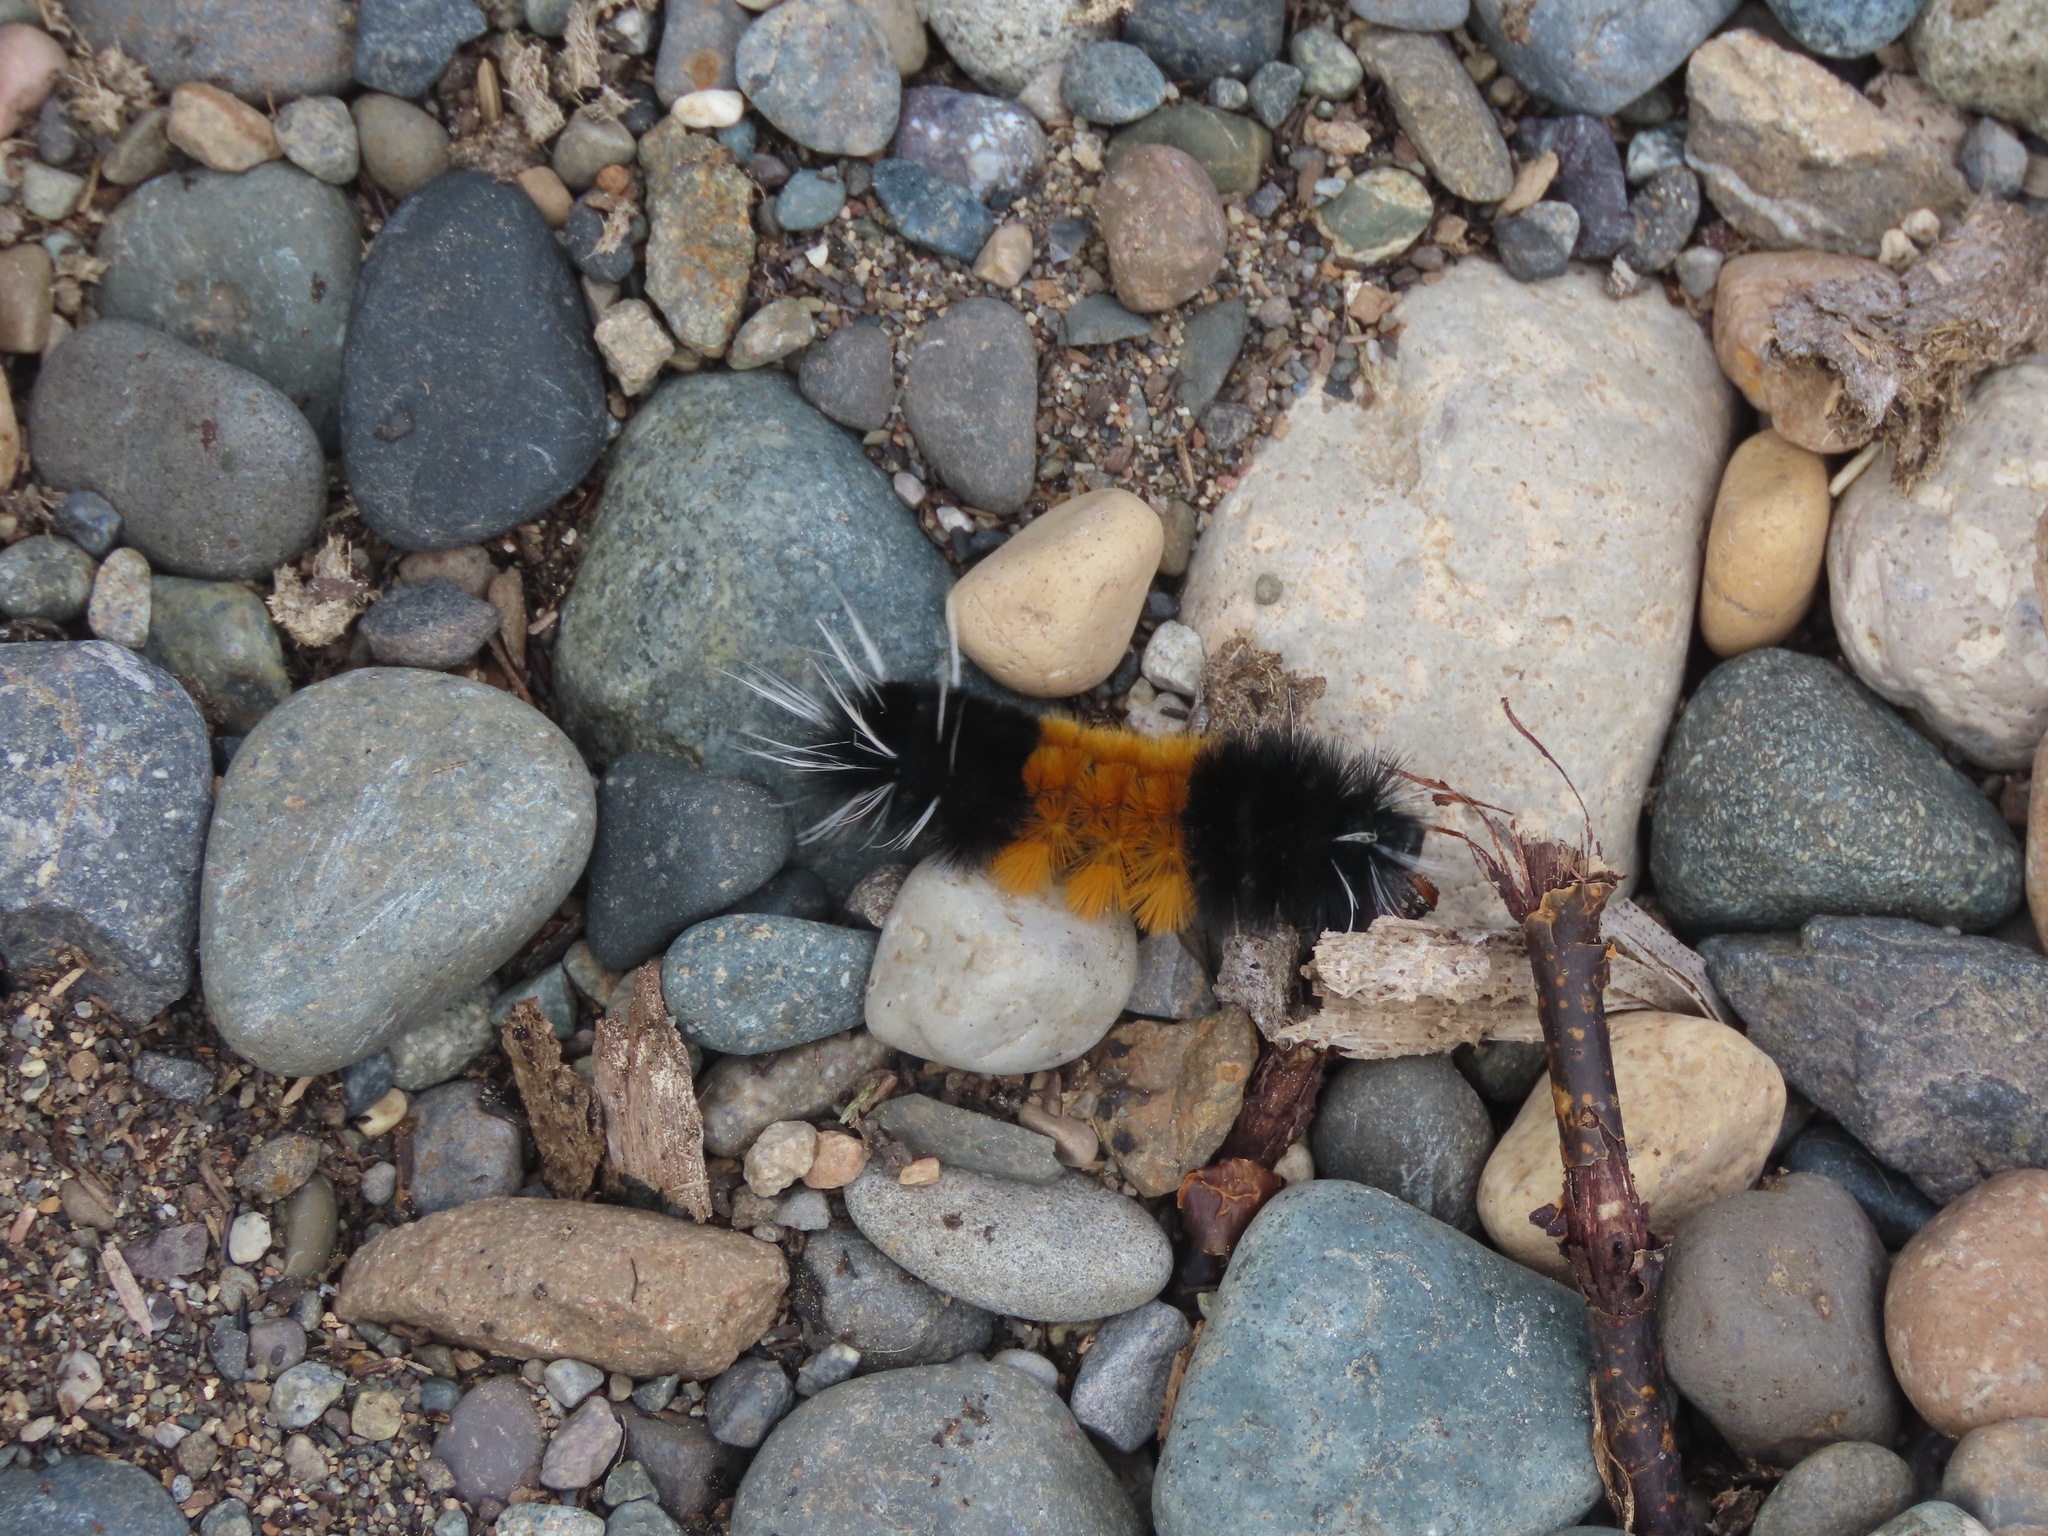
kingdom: Animalia
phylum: Arthropoda
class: Insecta
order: Lepidoptera
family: Erebidae
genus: Lophocampa
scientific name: Lophocampa maculata
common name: Spotted tussock moth
